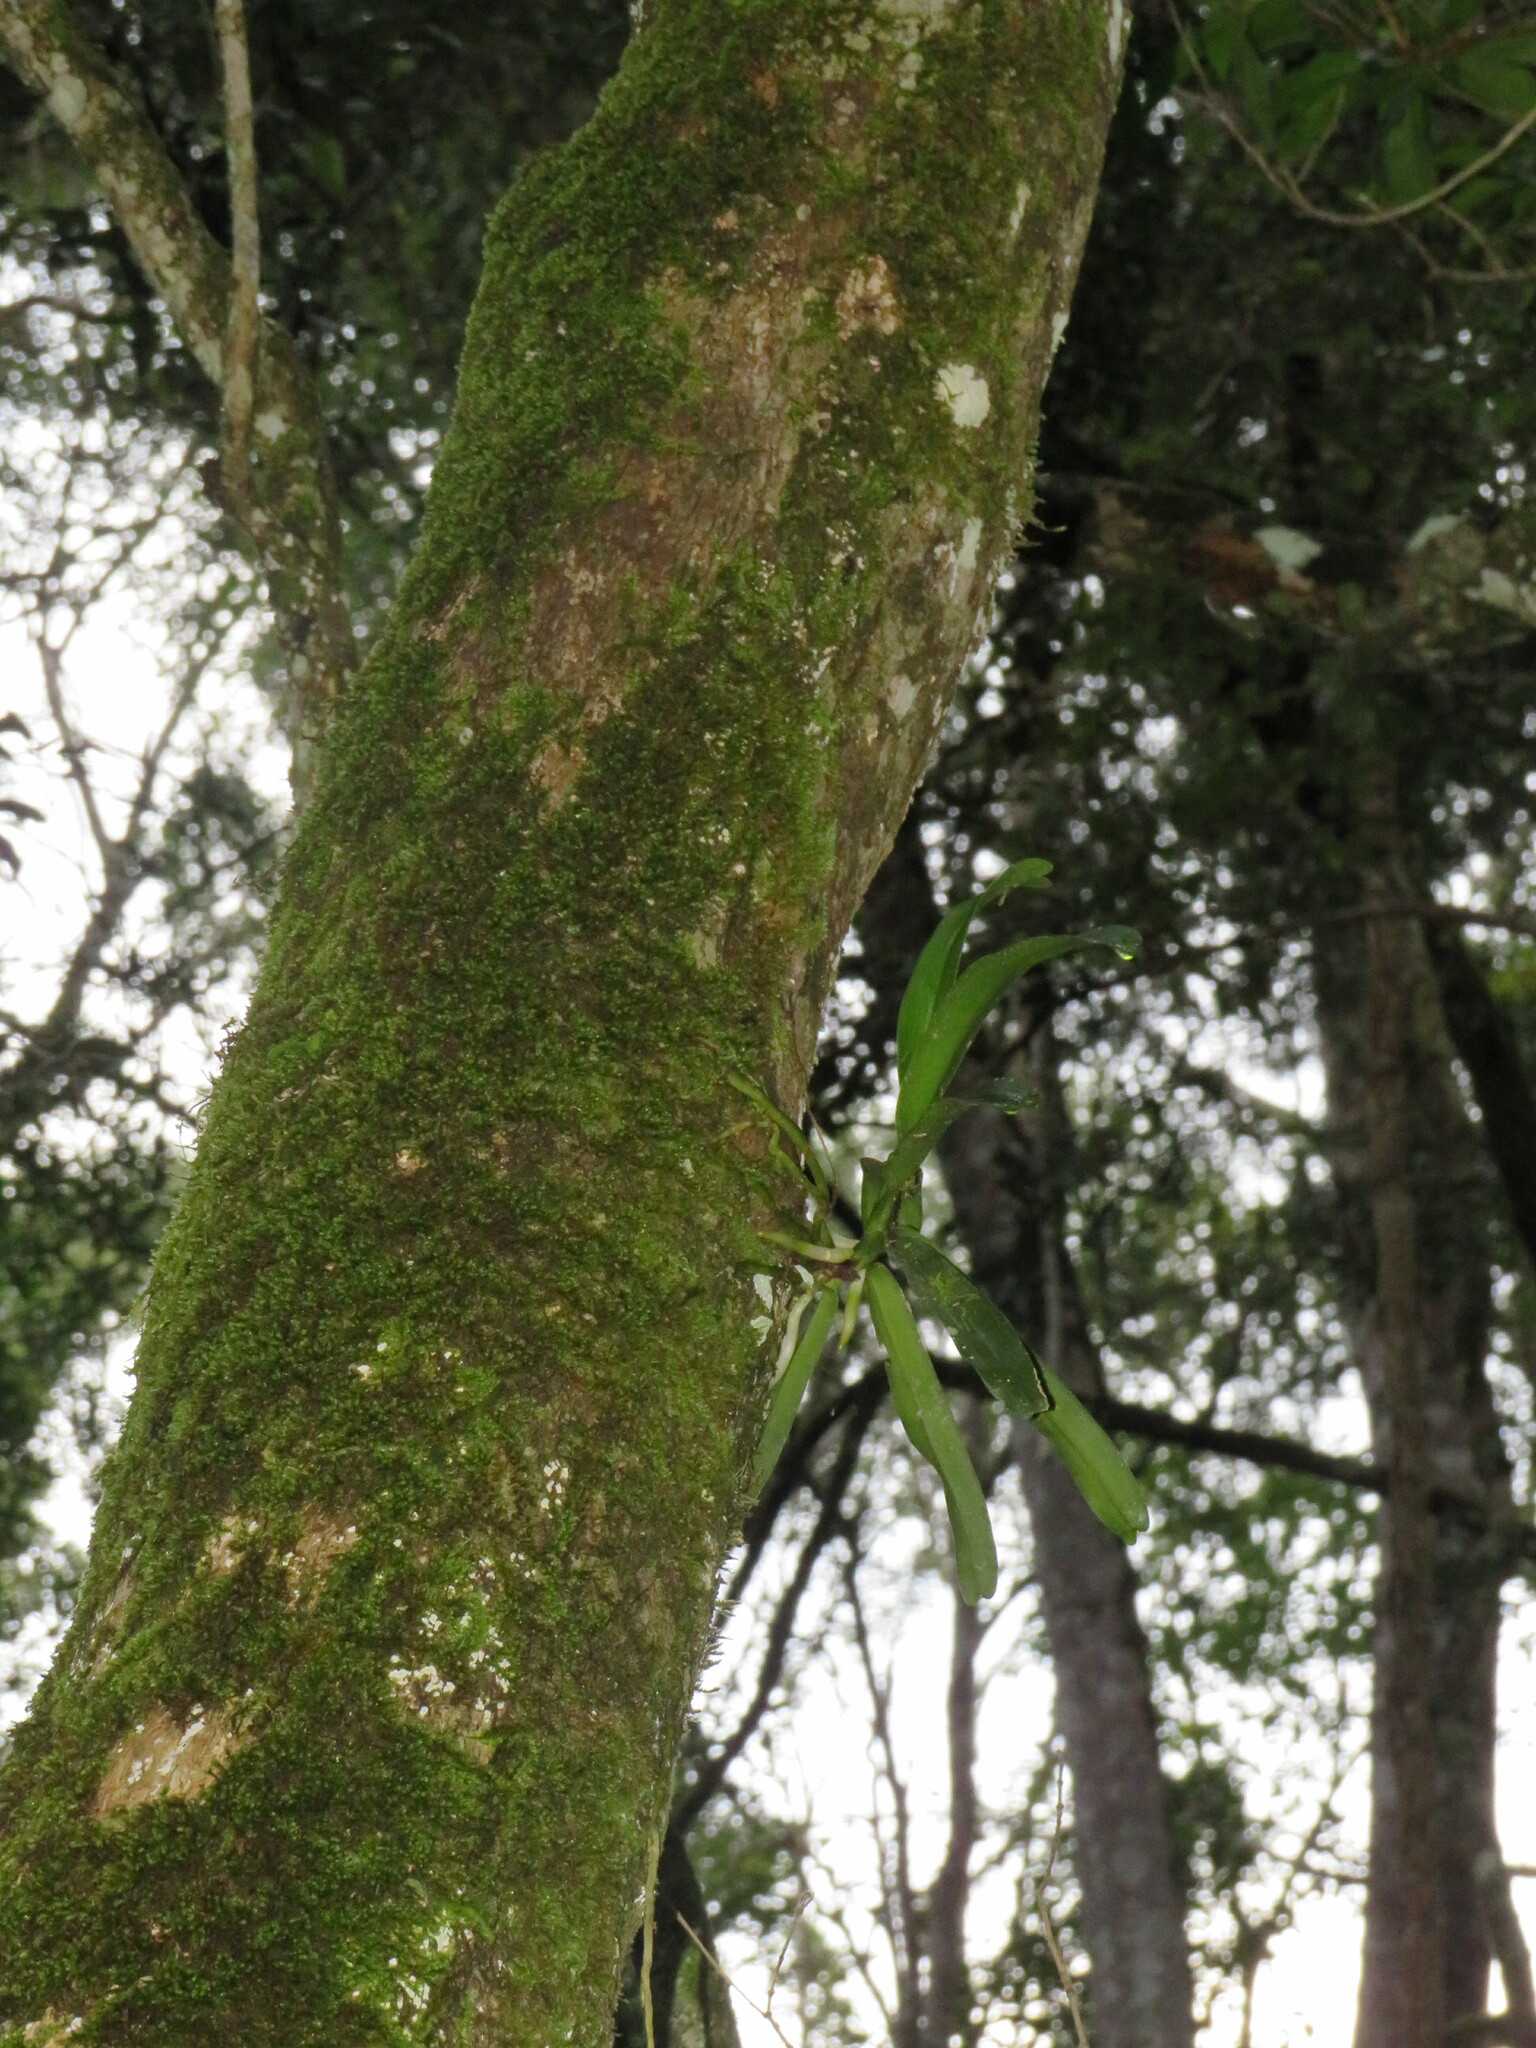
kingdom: Plantae
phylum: Tracheophyta
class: Liliopsida
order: Asparagales
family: Orchidaceae
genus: Cyrtorchis
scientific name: Cyrtorchis arcuata
